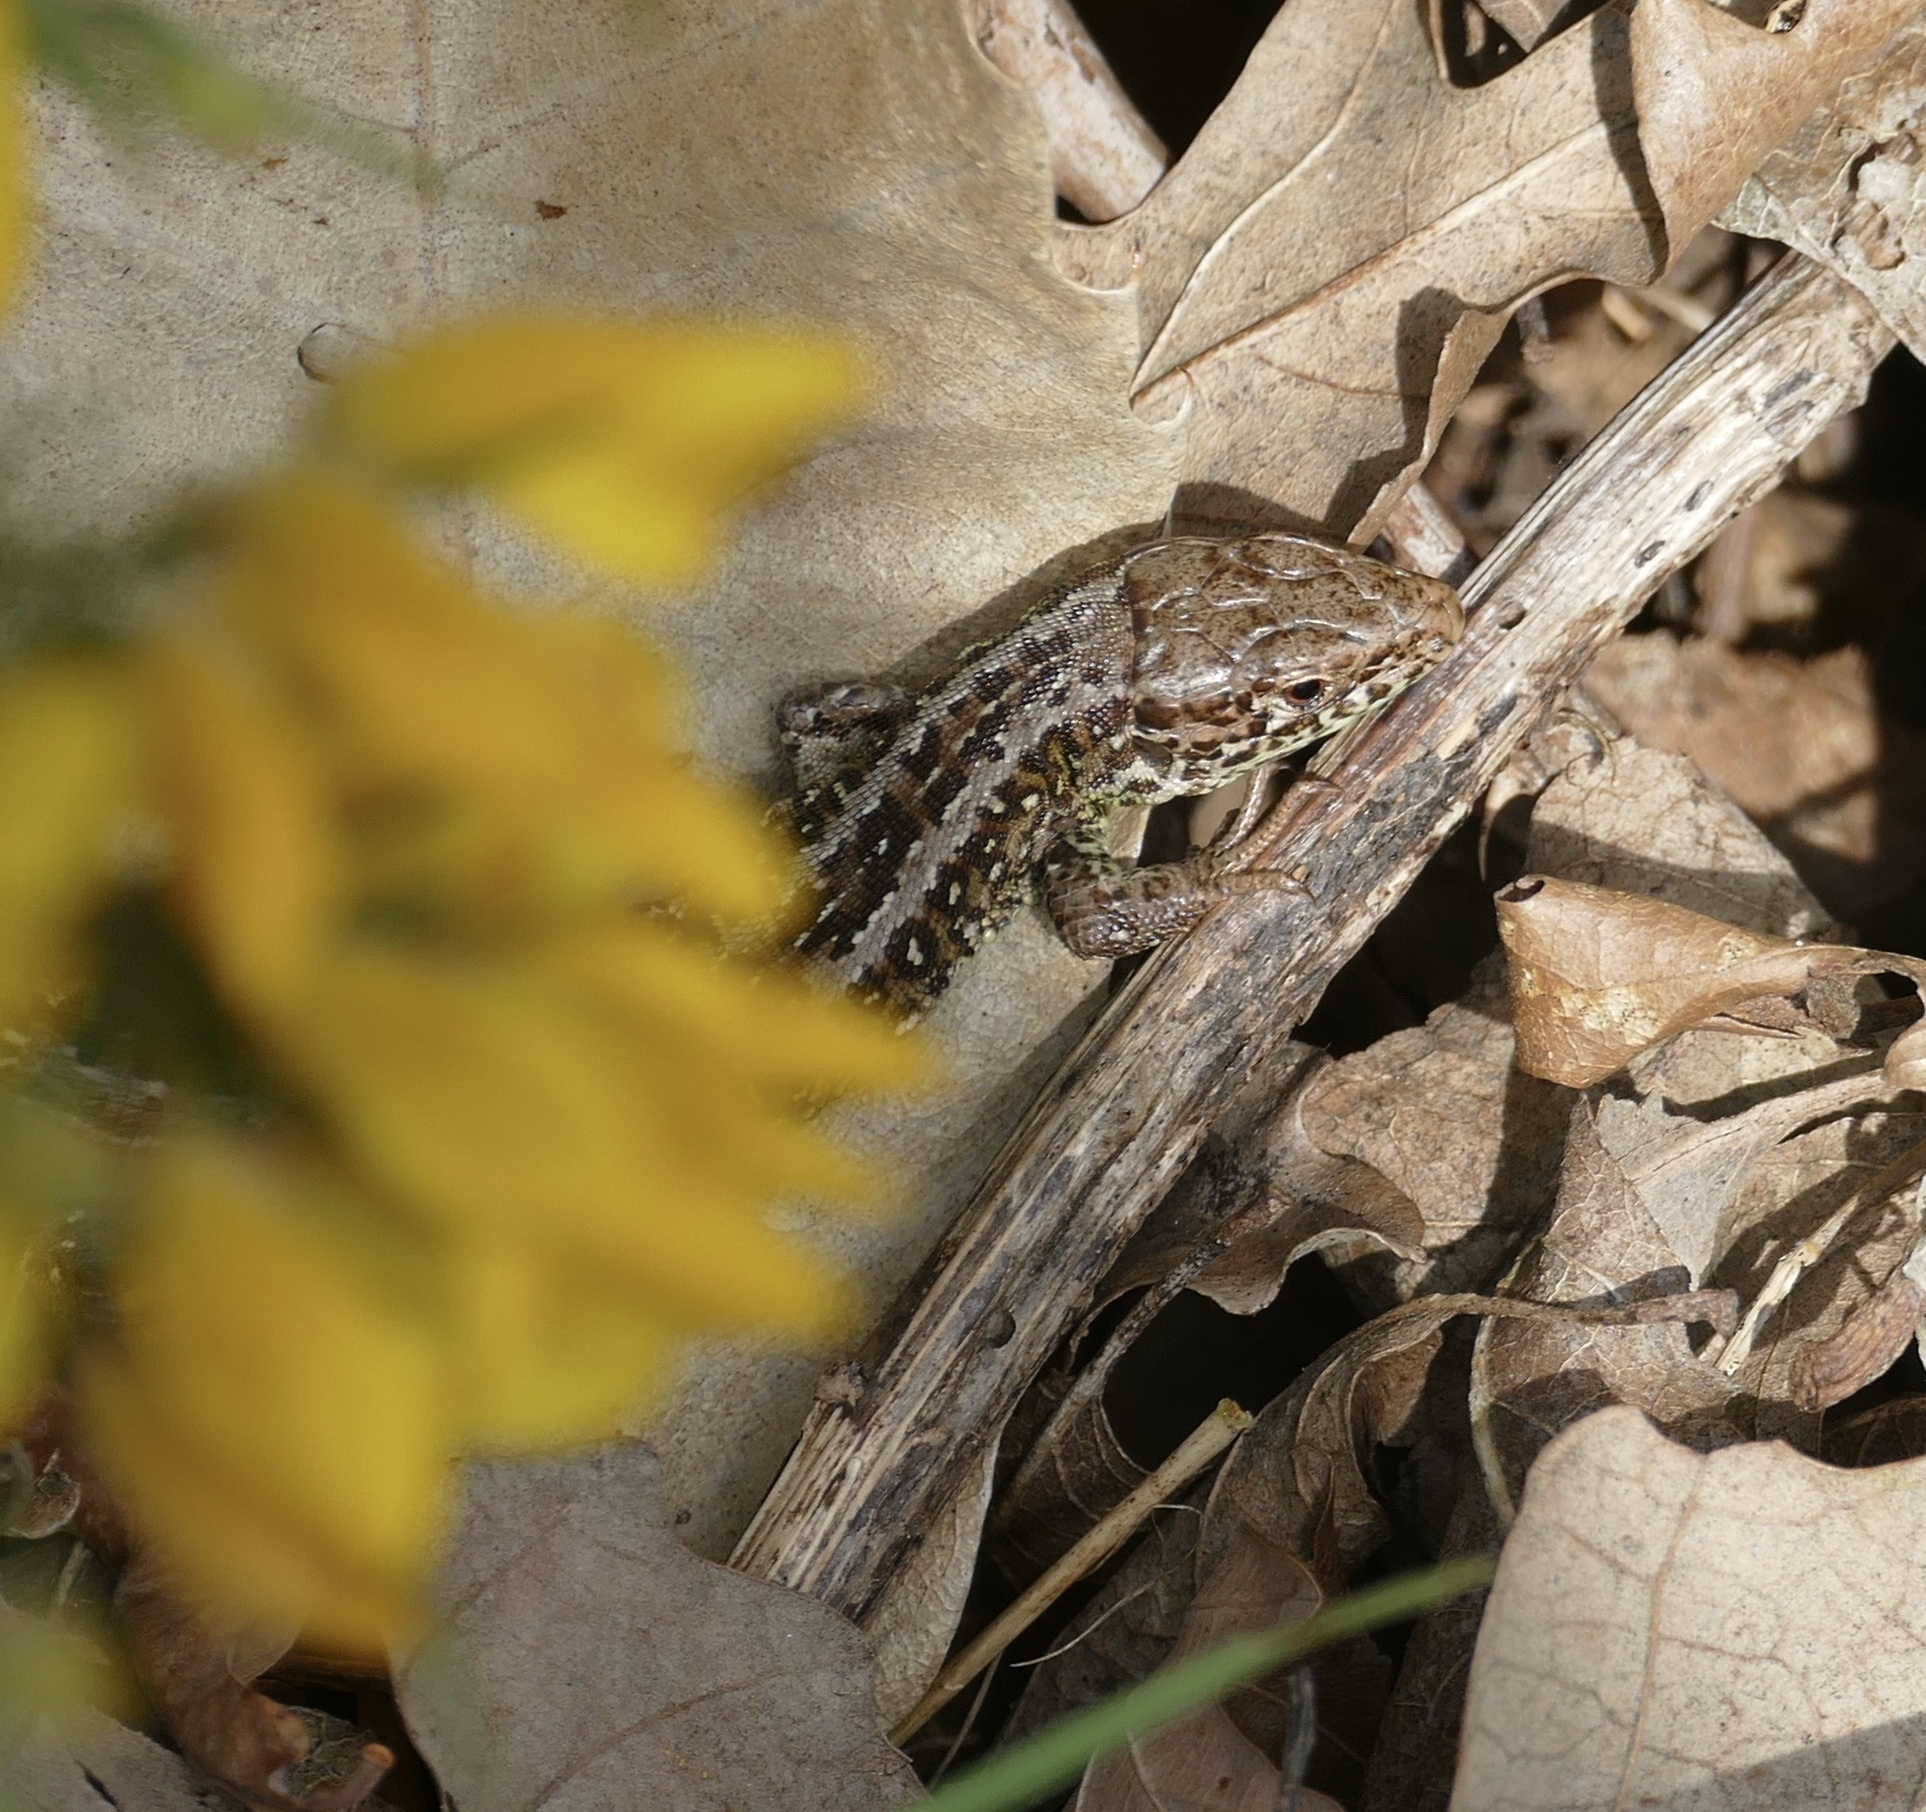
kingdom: Animalia
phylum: Chordata
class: Squamata
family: Lacertidae
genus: Lacerta
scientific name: Lacerta agilis
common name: Sand lizard
